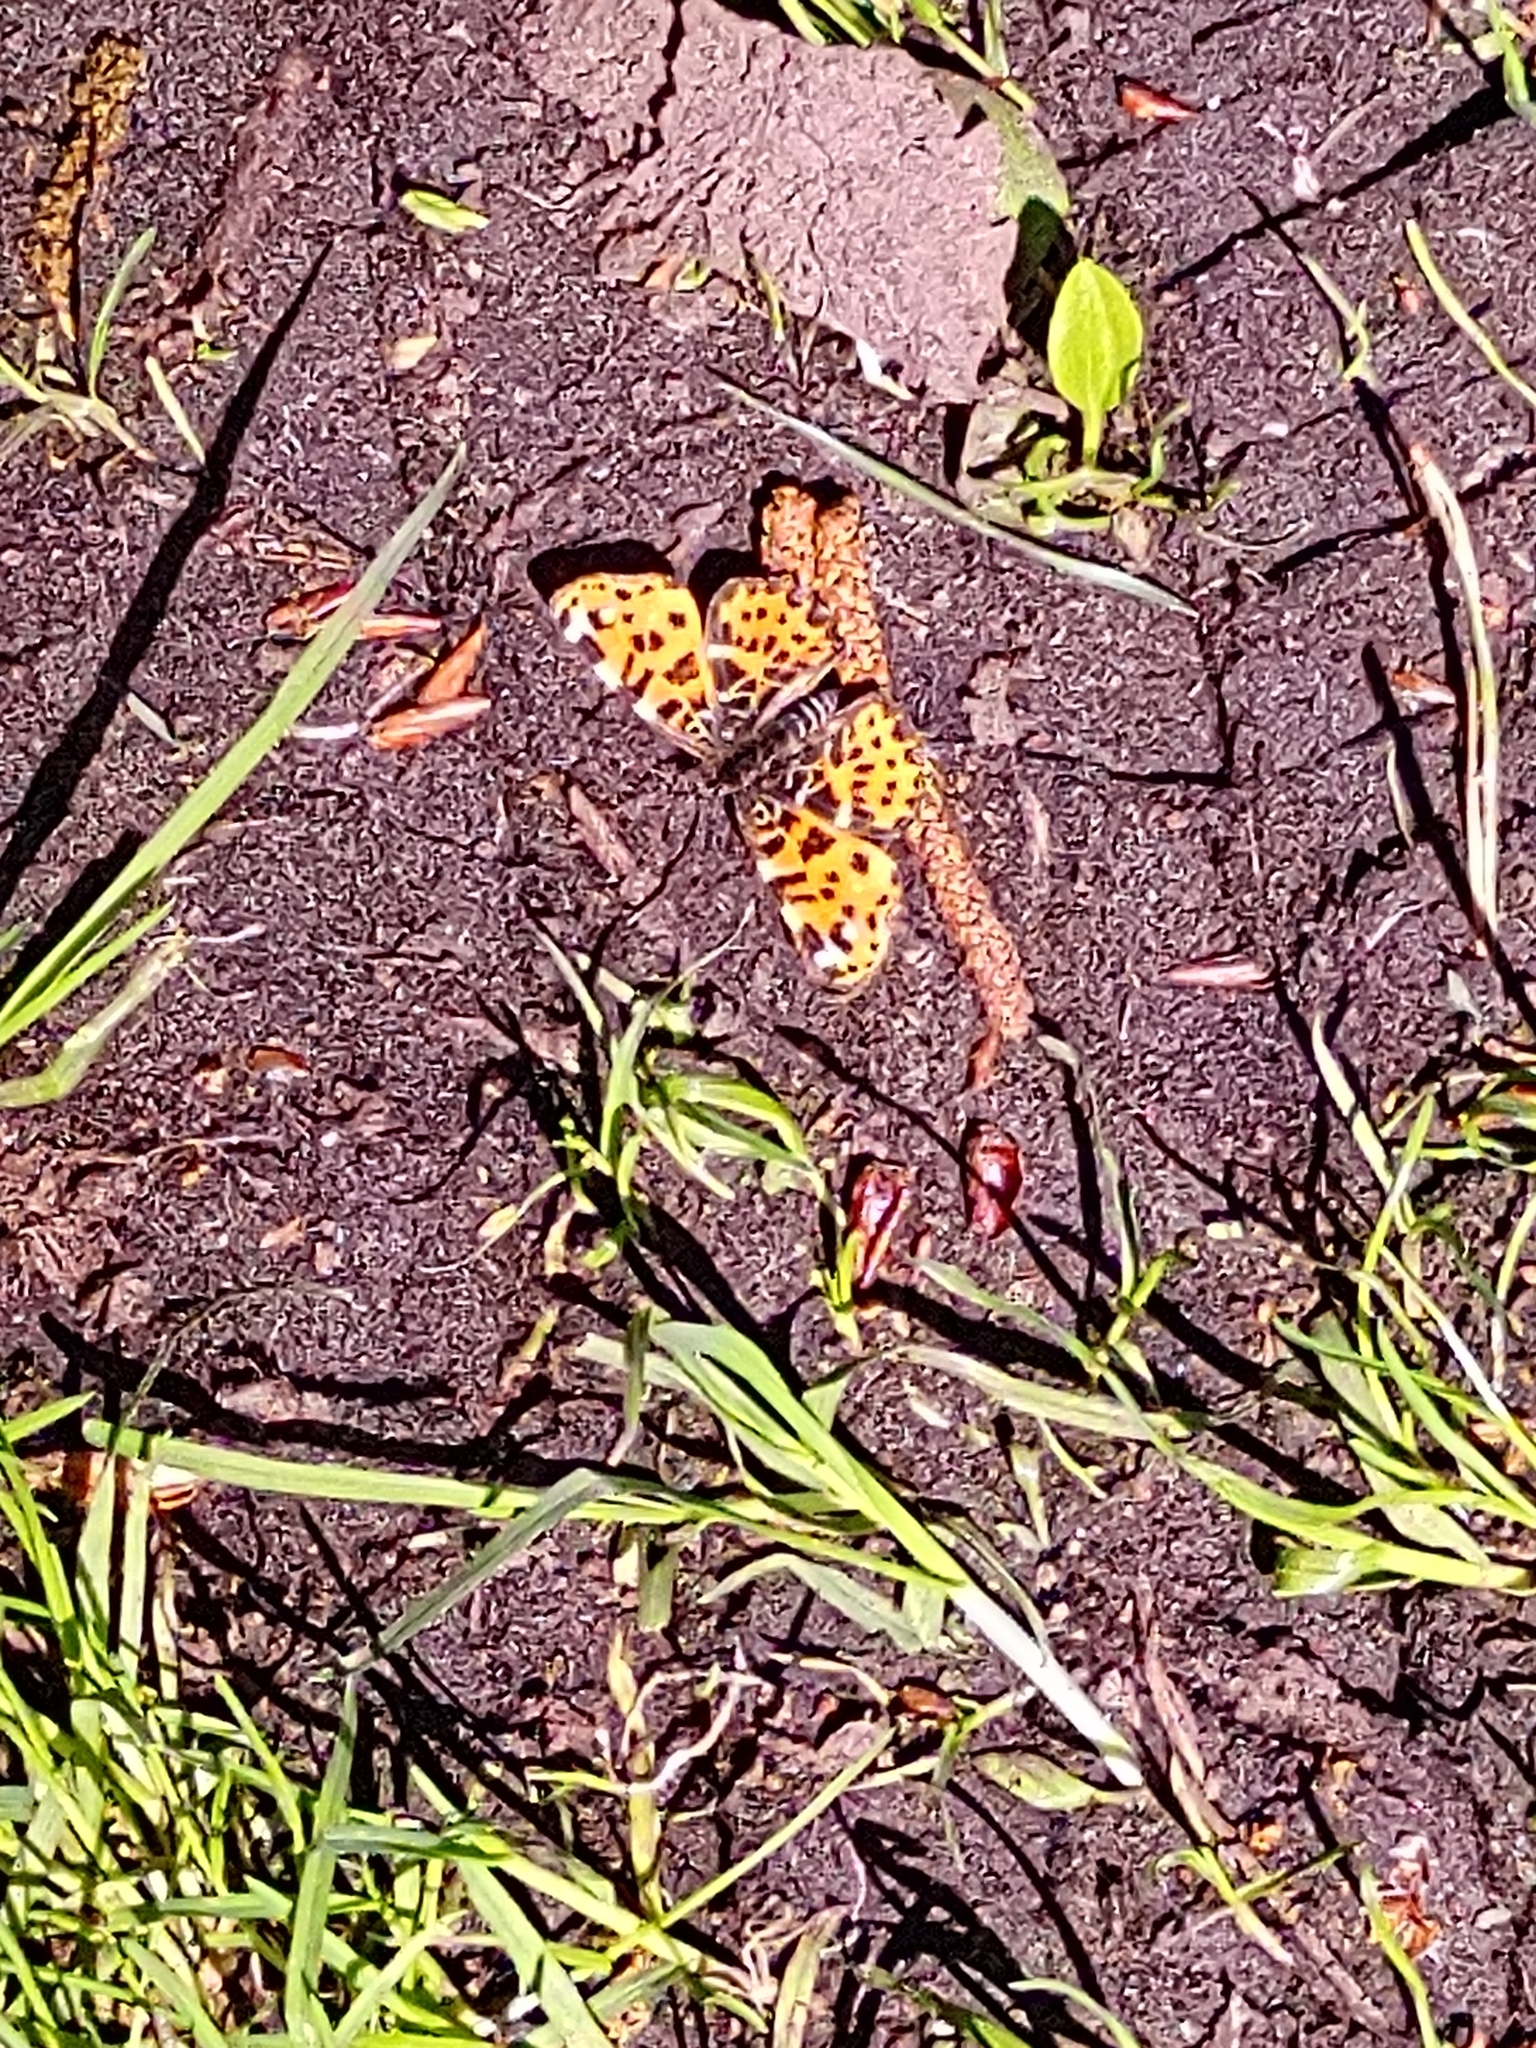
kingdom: Animalia
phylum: Arthropoda
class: Insecta
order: Lepidoptera
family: Nymphalidae
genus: Araschnia
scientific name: Araschnia levana
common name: Map butterfly
